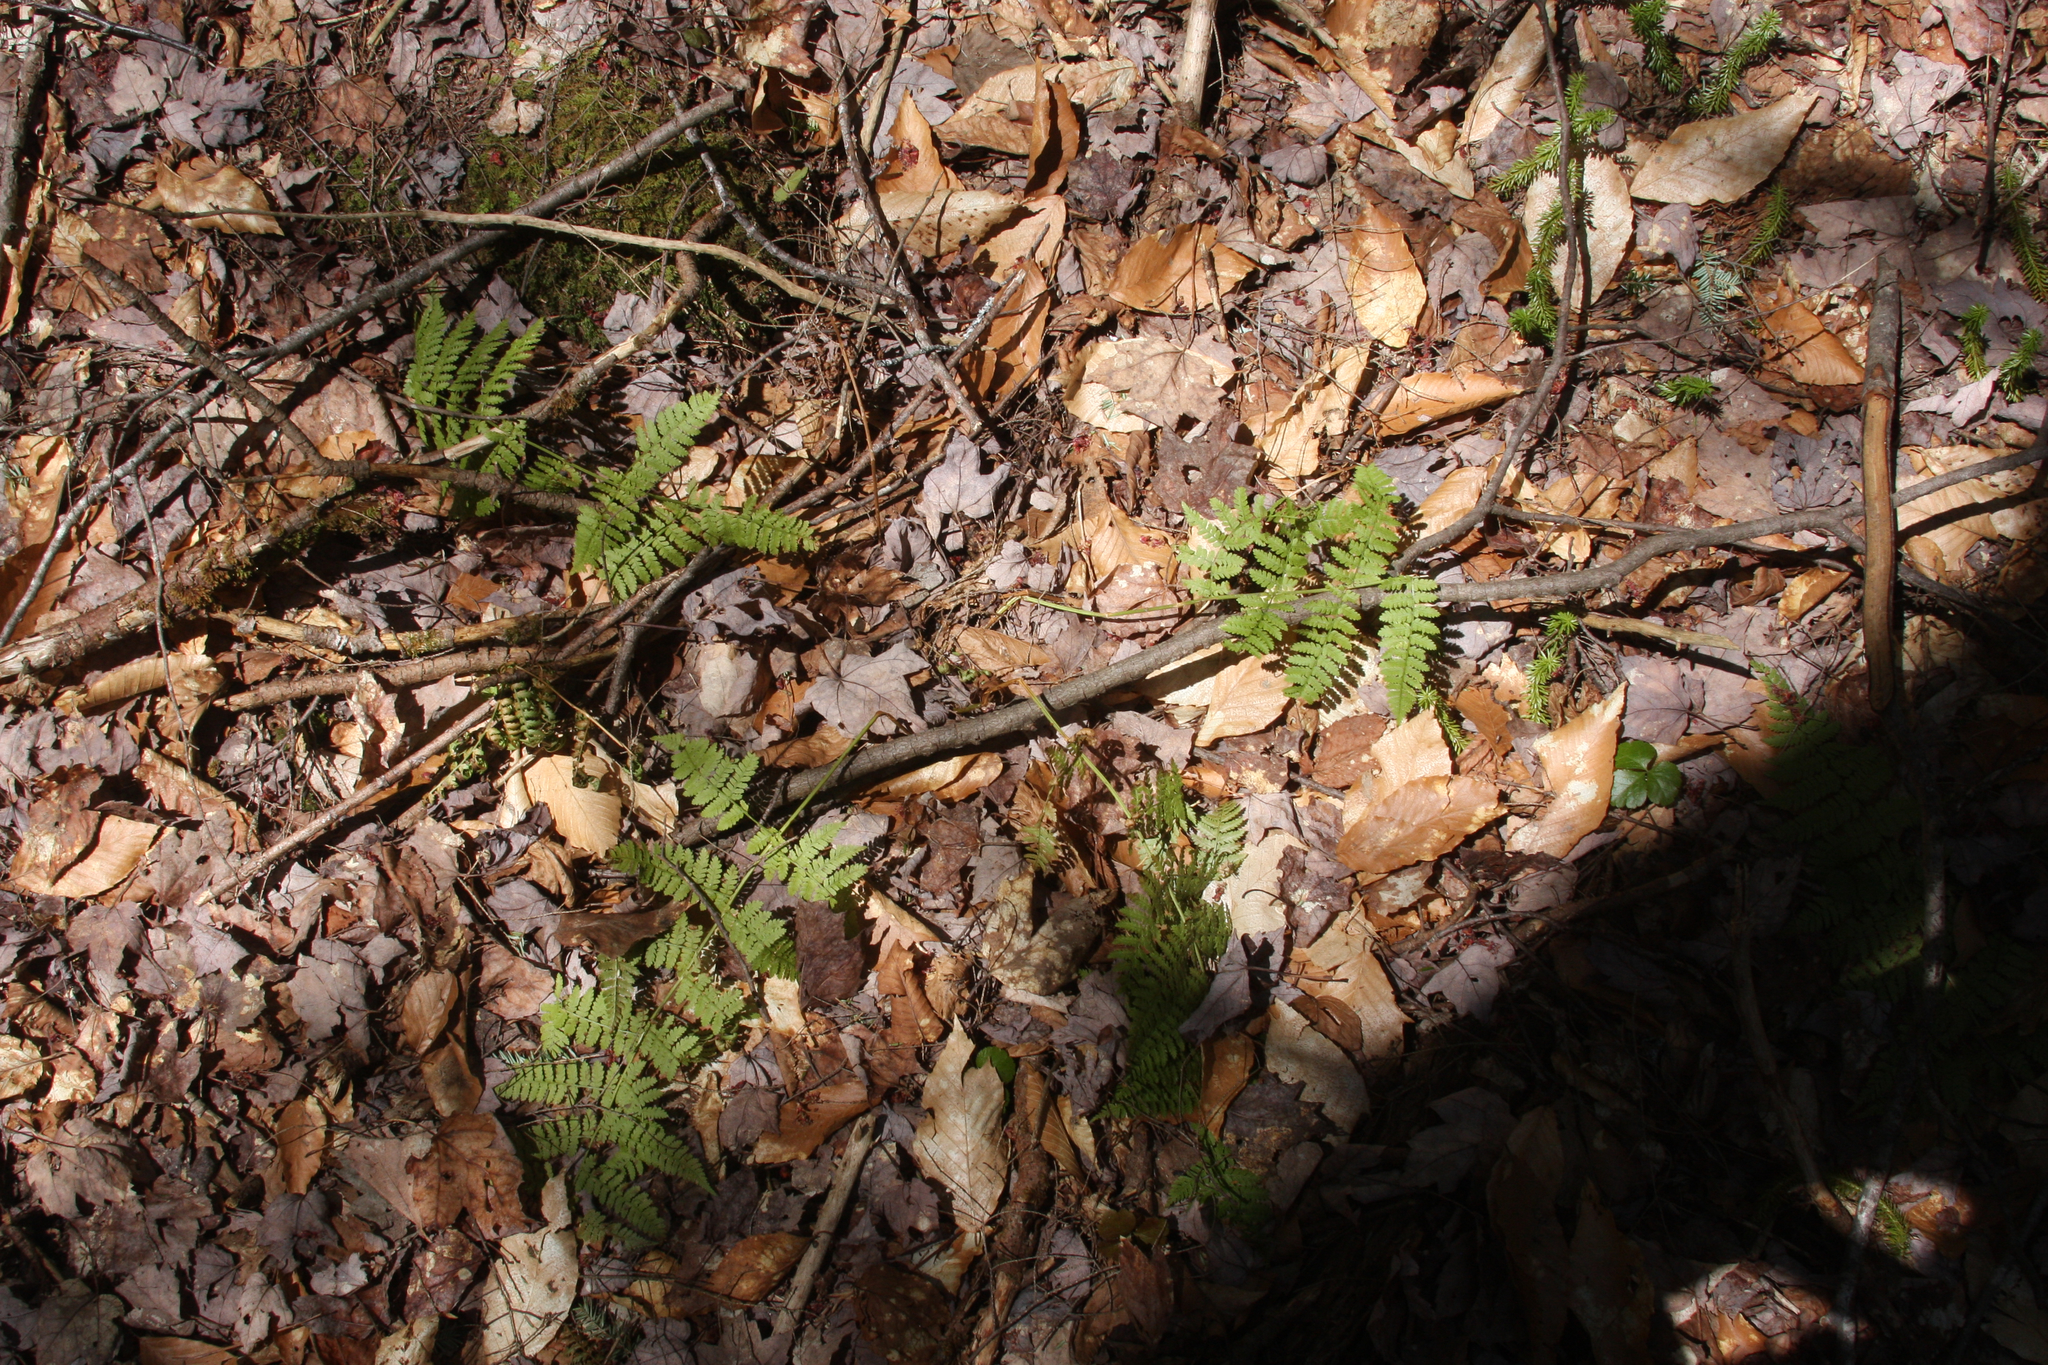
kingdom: Plantae
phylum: Tracheophyta
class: Polypodiopsida
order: Polypodiales
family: Dryopteridaceae
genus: Dryopteris
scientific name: Dryopteris intermedia
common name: Evergreen wood fern
